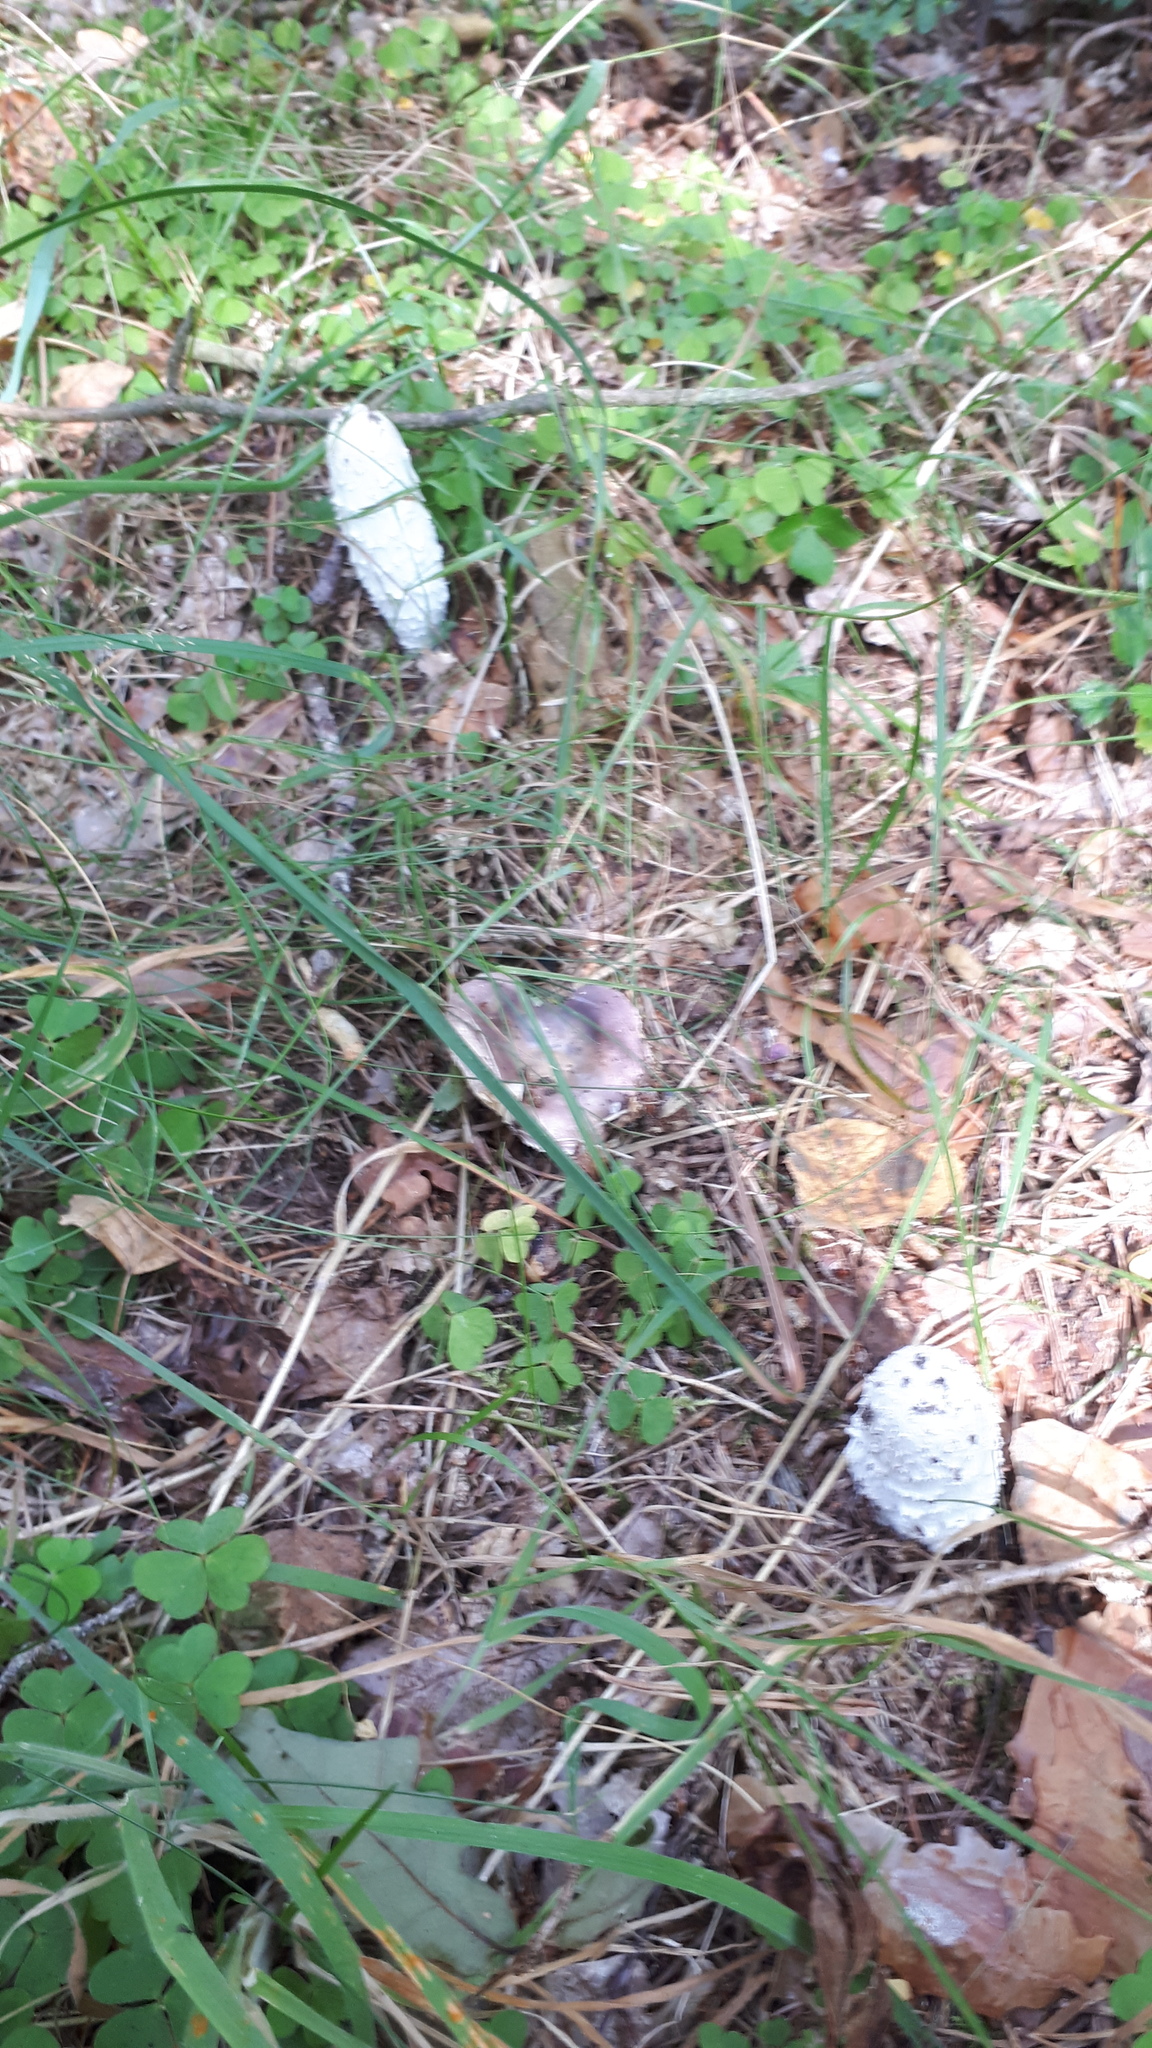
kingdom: Fungi
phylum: Basidiomycota
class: Agaricomycetes
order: Agaricales
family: Agaricaceae
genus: Coprinus
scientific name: Coprinus comatus
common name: Lawyer's wig
